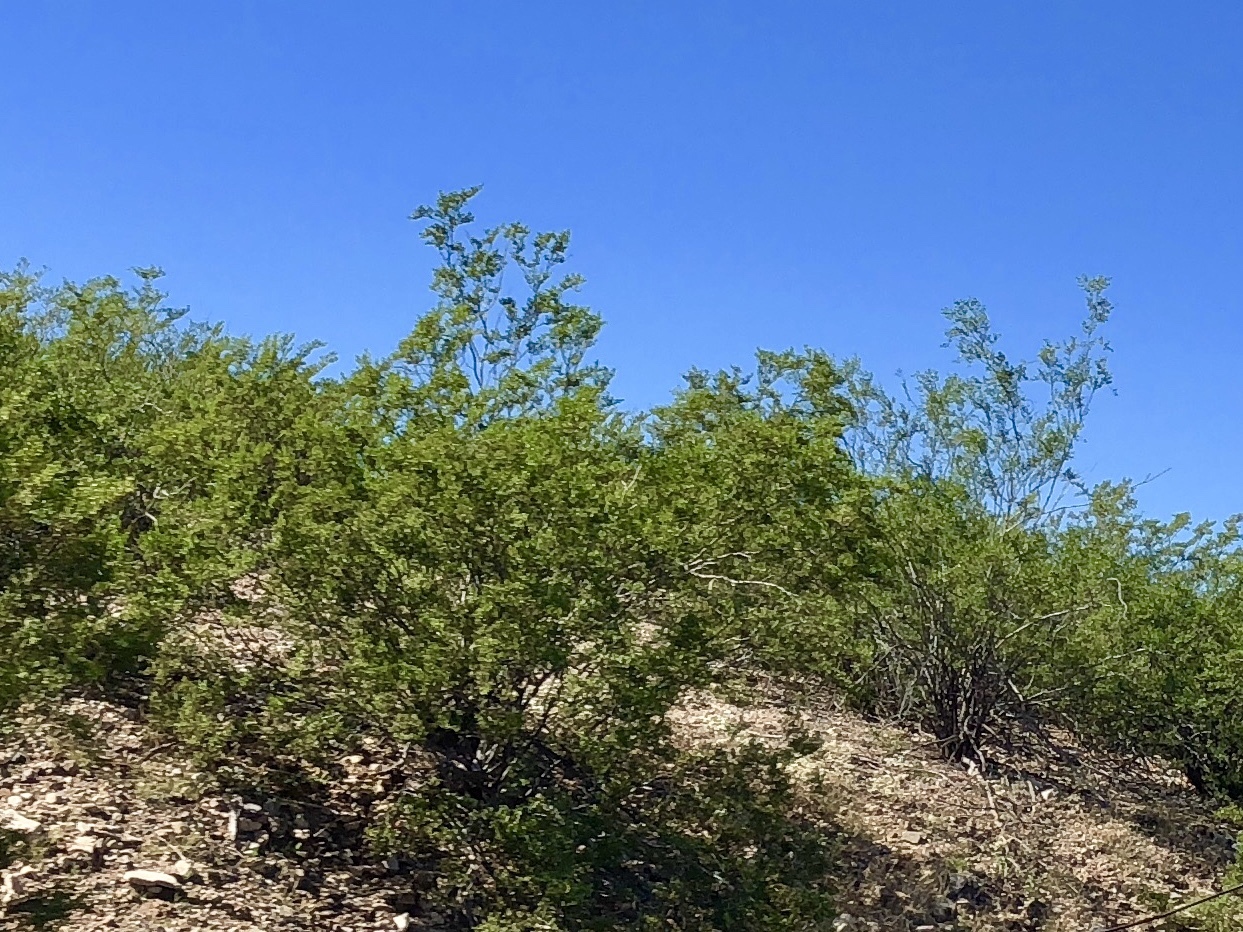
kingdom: Plantae
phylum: Tracheophyta
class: Magnoliopsida
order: Zygophyllales
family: Zygophyllaceae
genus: Larrea
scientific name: Larrea tridentata
